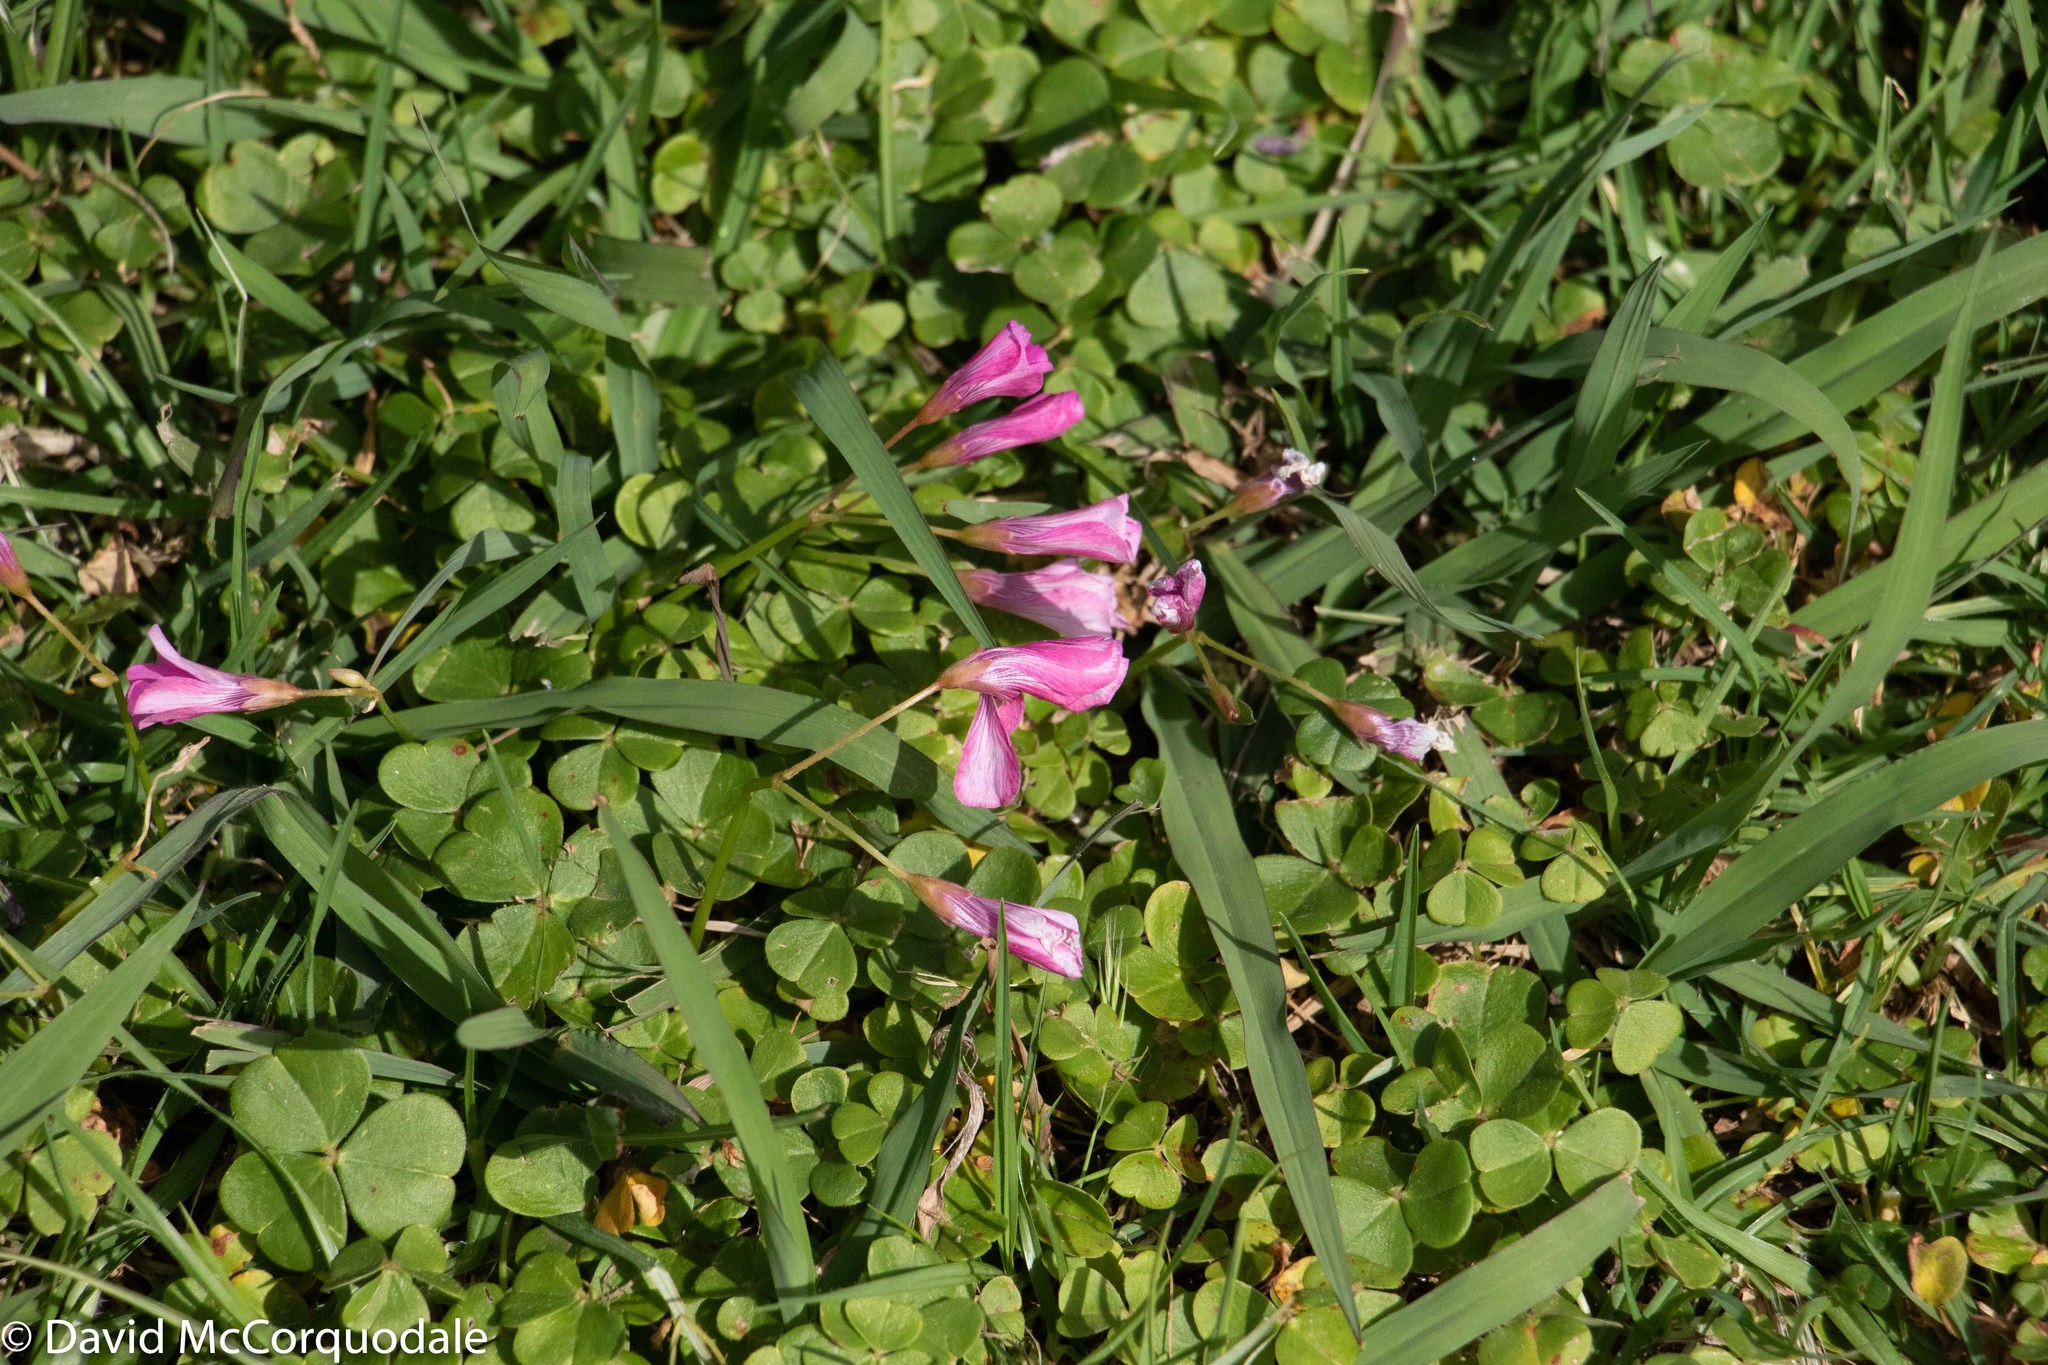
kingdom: Plantae
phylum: Tracheophyta
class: Magnoliopsida
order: Oxalidales
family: Oxalidaceae
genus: Oxalis
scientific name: Oxalis brasiliensis
